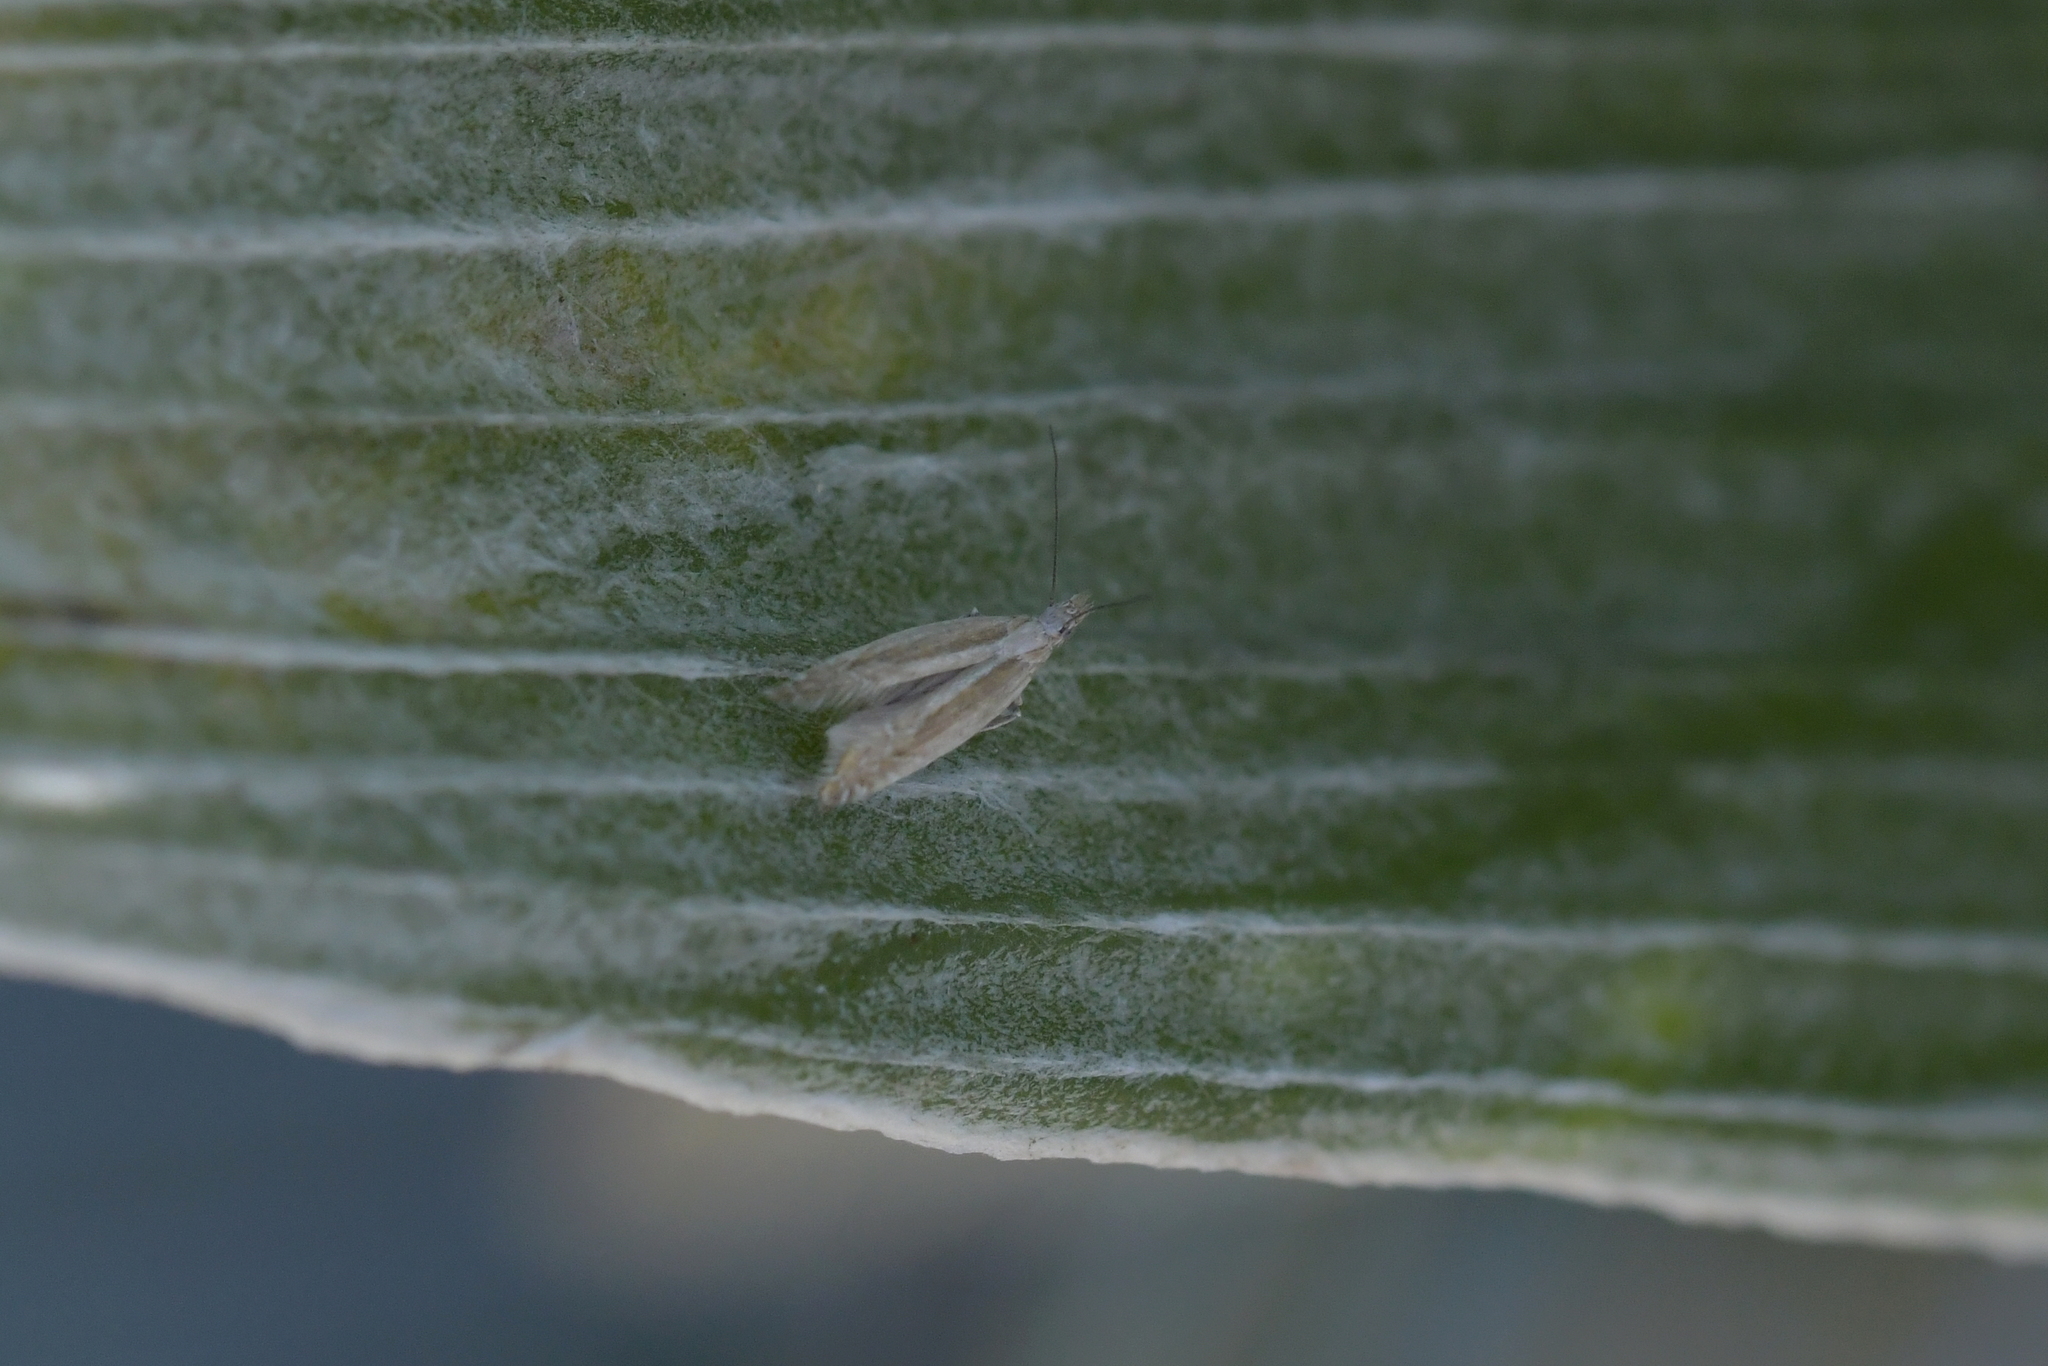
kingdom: Animalia
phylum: Arthropoda
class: Insecta
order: Lepidoptera
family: Glyphipterigidae
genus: Glyphipterix
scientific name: Glyphipterix oxymachaera
